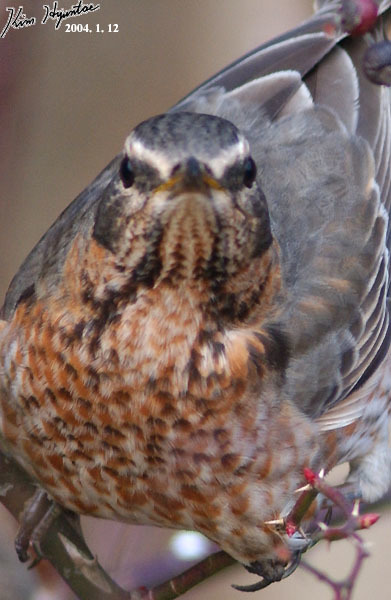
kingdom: Animalia
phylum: Chordata
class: Aves
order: Passeriformes
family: Turdidae
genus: Turdus
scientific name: Turdus naumanni
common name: Naumann's thrush
